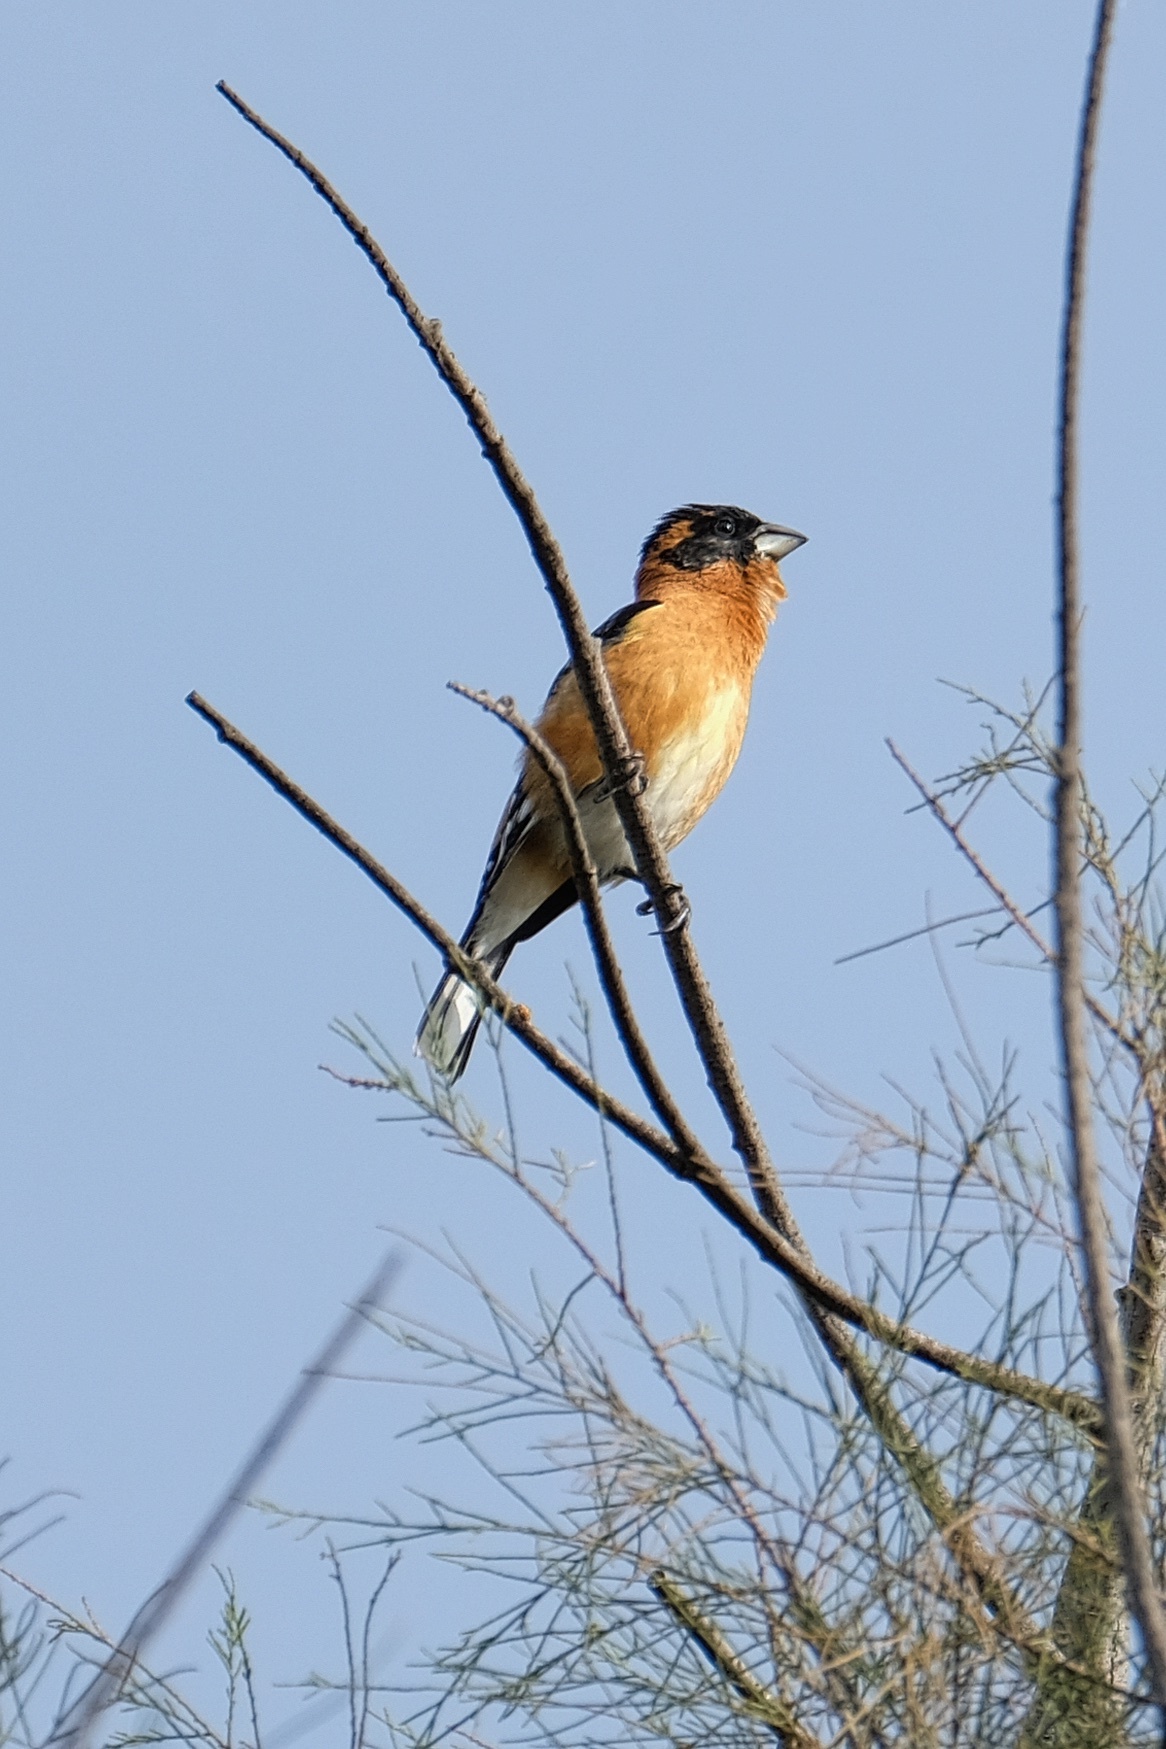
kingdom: Animalia
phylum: Chordata
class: Aves
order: Passeriformes
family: Cardinalidae
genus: Pheucticus
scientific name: Pheucticus melanocephalus
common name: Black-headed grosbeak
